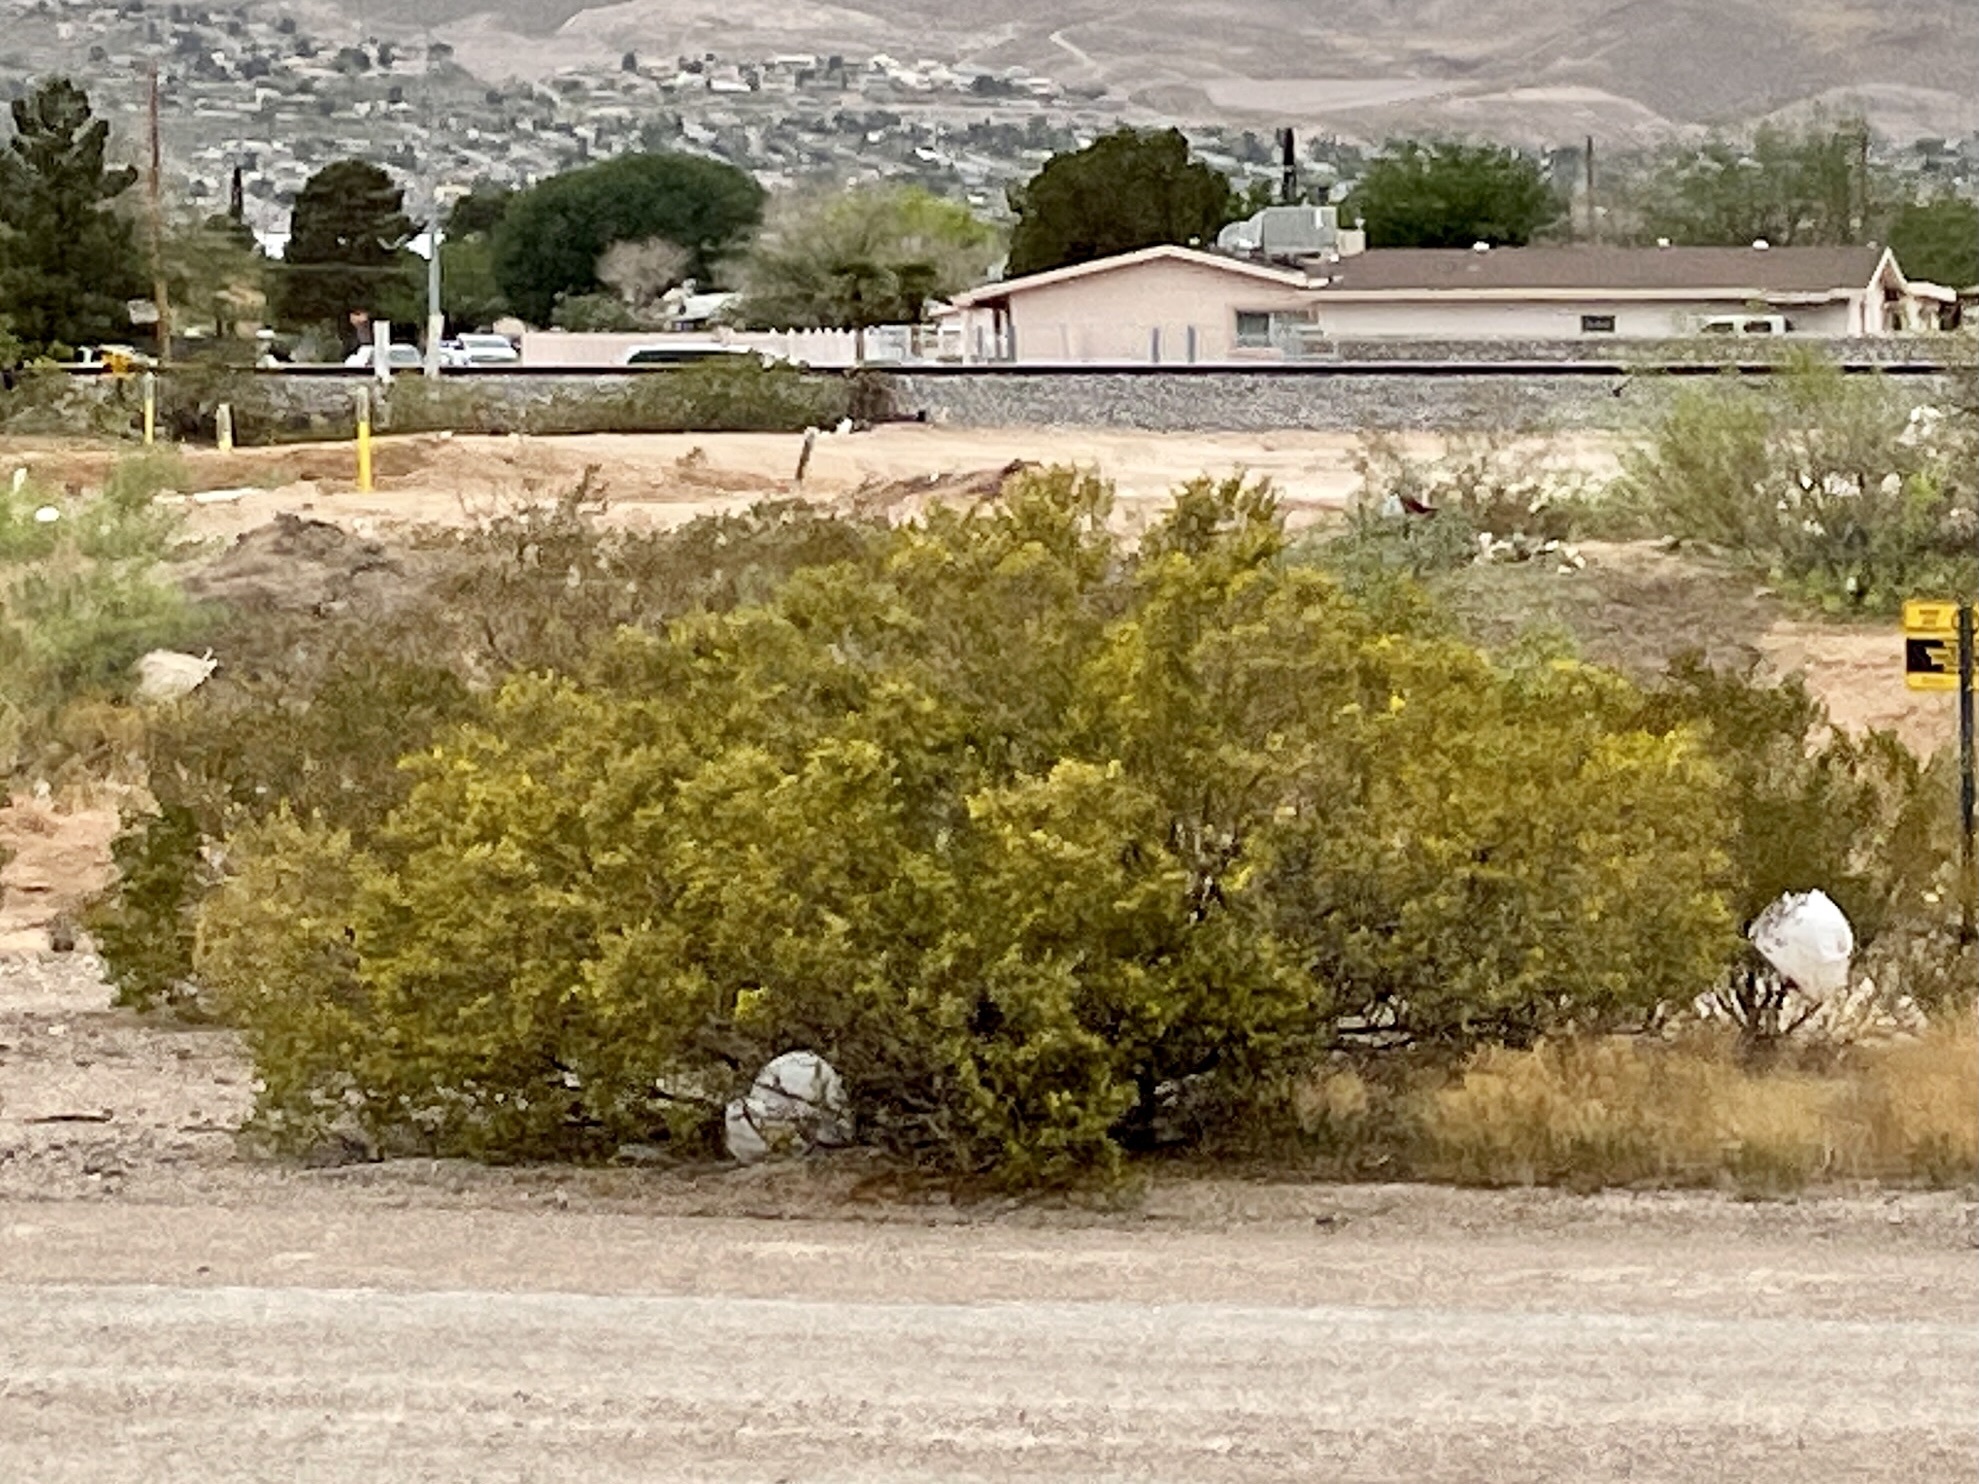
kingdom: Plantae
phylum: Tracheophyta
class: Magnoliopsida
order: Zygophyllales
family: Zygophyllaceae
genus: Larrea
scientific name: Larrea tridentata
